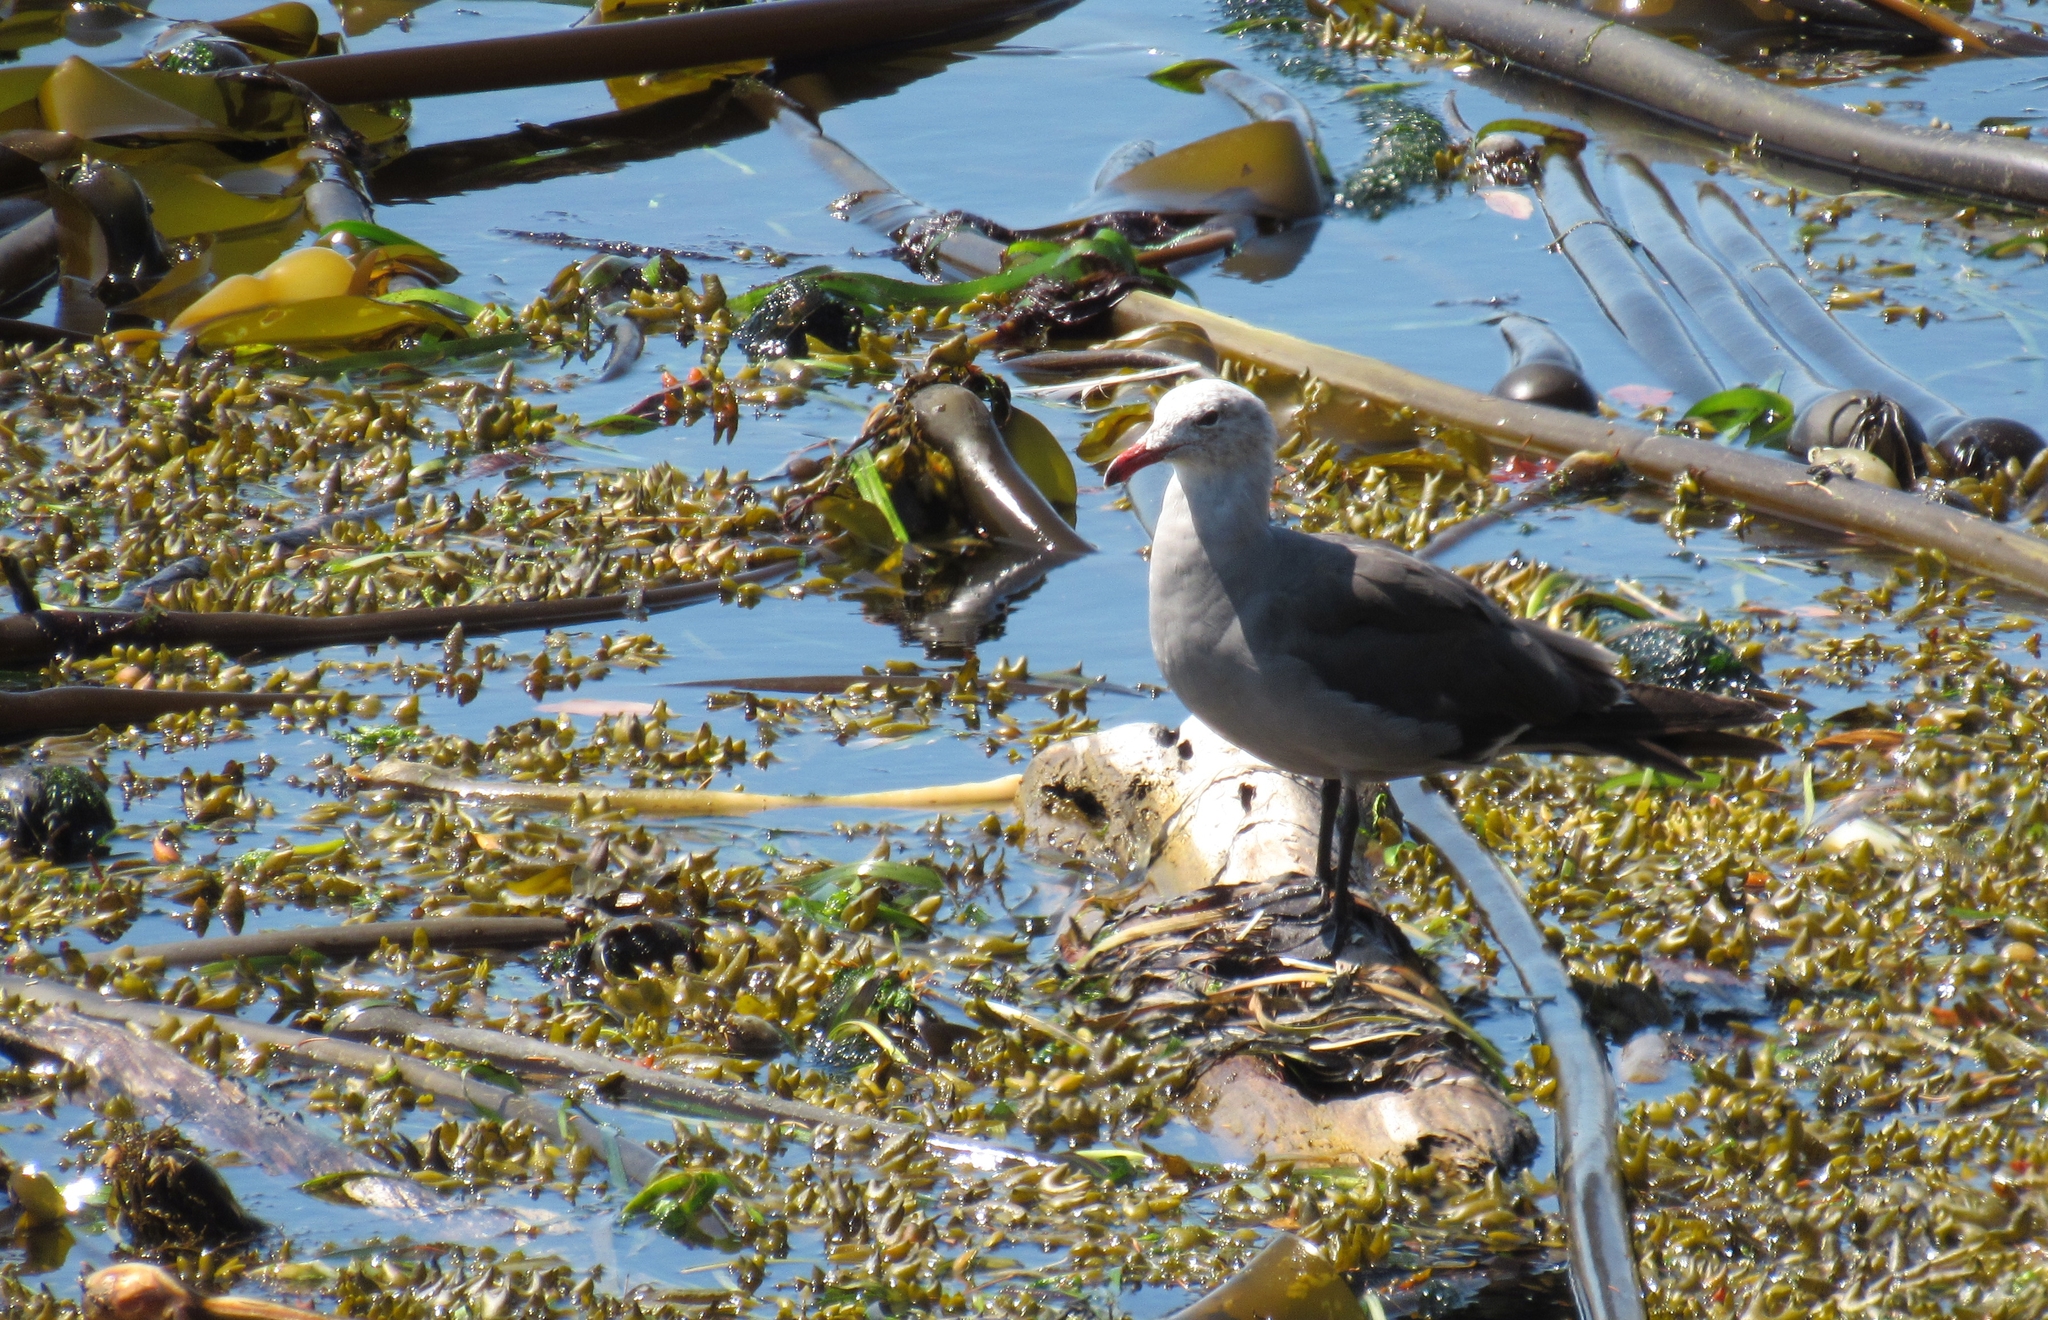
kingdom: Animalia
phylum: Chordata
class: Aves
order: Charadriiformes
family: Laridae
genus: Larus
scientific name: Larus heermanni
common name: Heermann's gull
